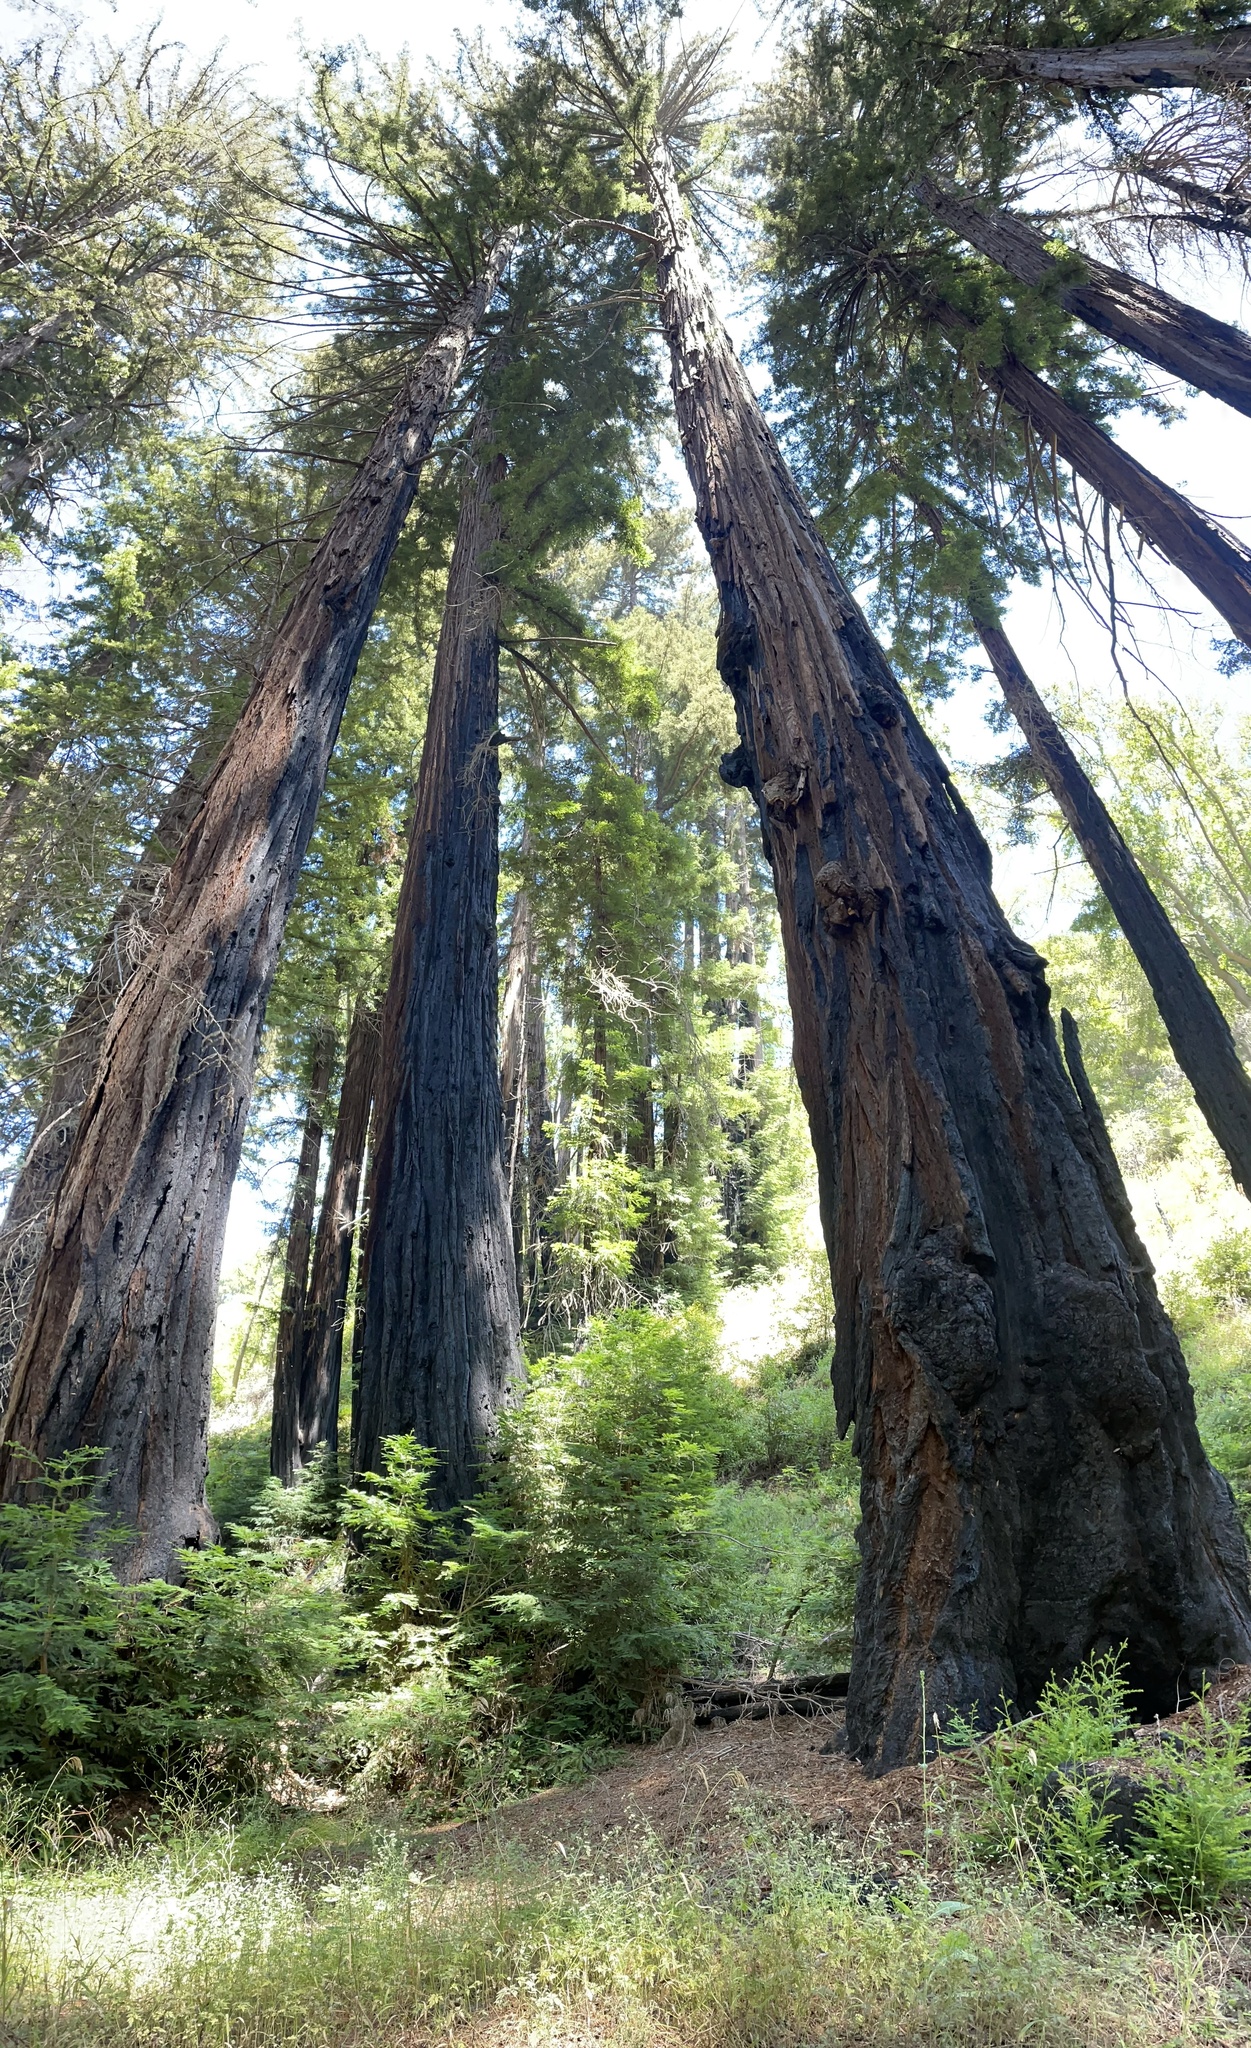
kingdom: Plantae
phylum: Tracheophyta
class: Pinopsida
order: Pinales
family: Cupressaceae
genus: Sequoia
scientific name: Sequoia sempervirens
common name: Coast redwood
